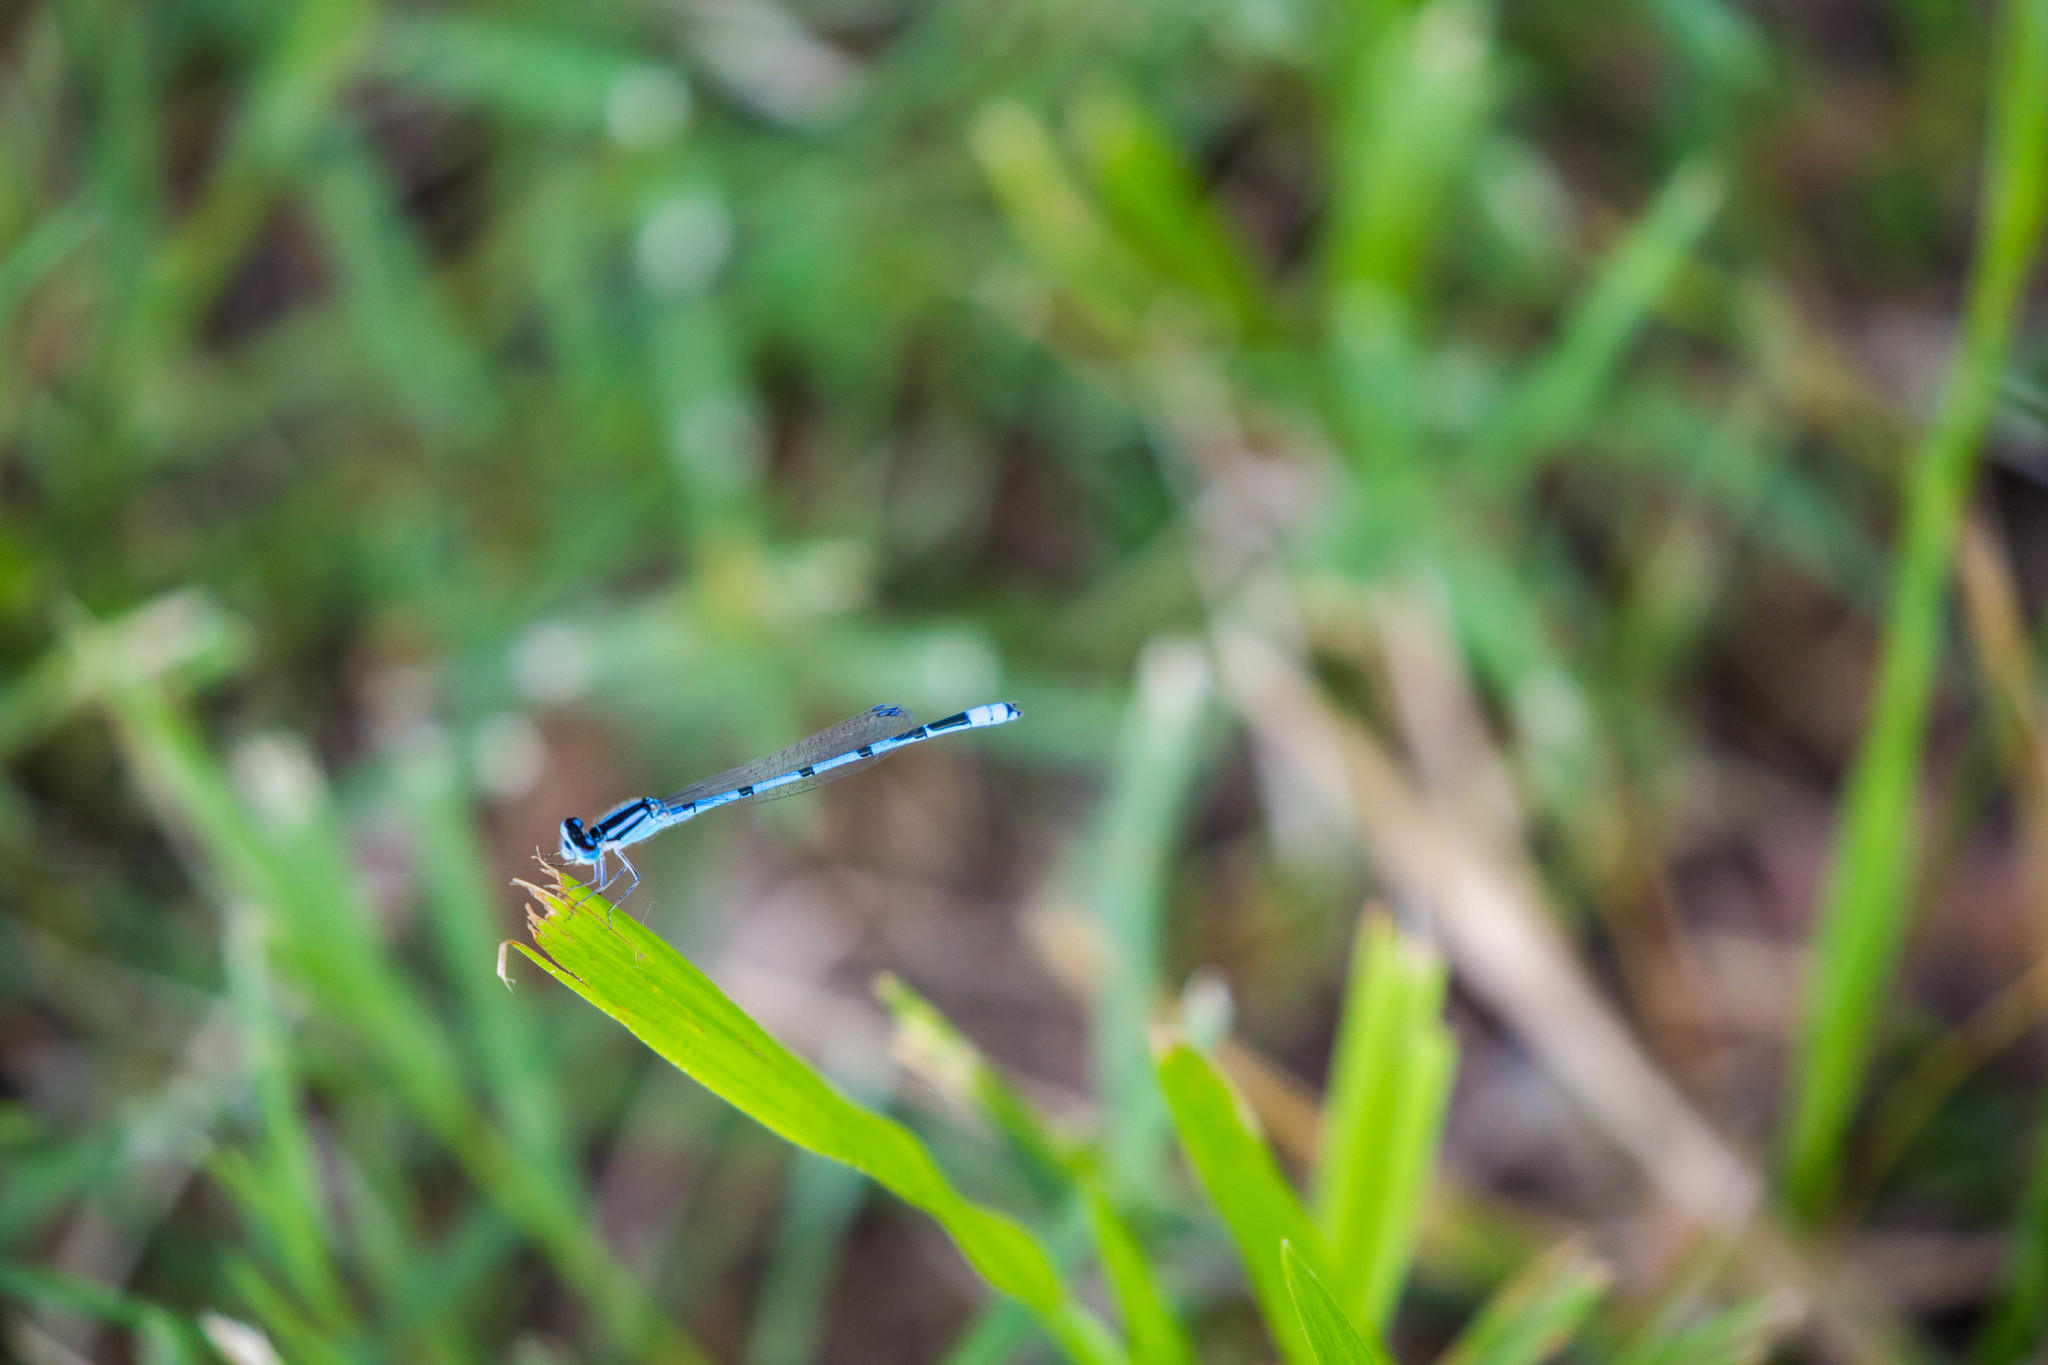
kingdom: Animalia
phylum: Arthropoda
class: Insecta
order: Odonata
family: Coenagrionidae
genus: Enallagma
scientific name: Enallagma civile
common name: Damselfly
